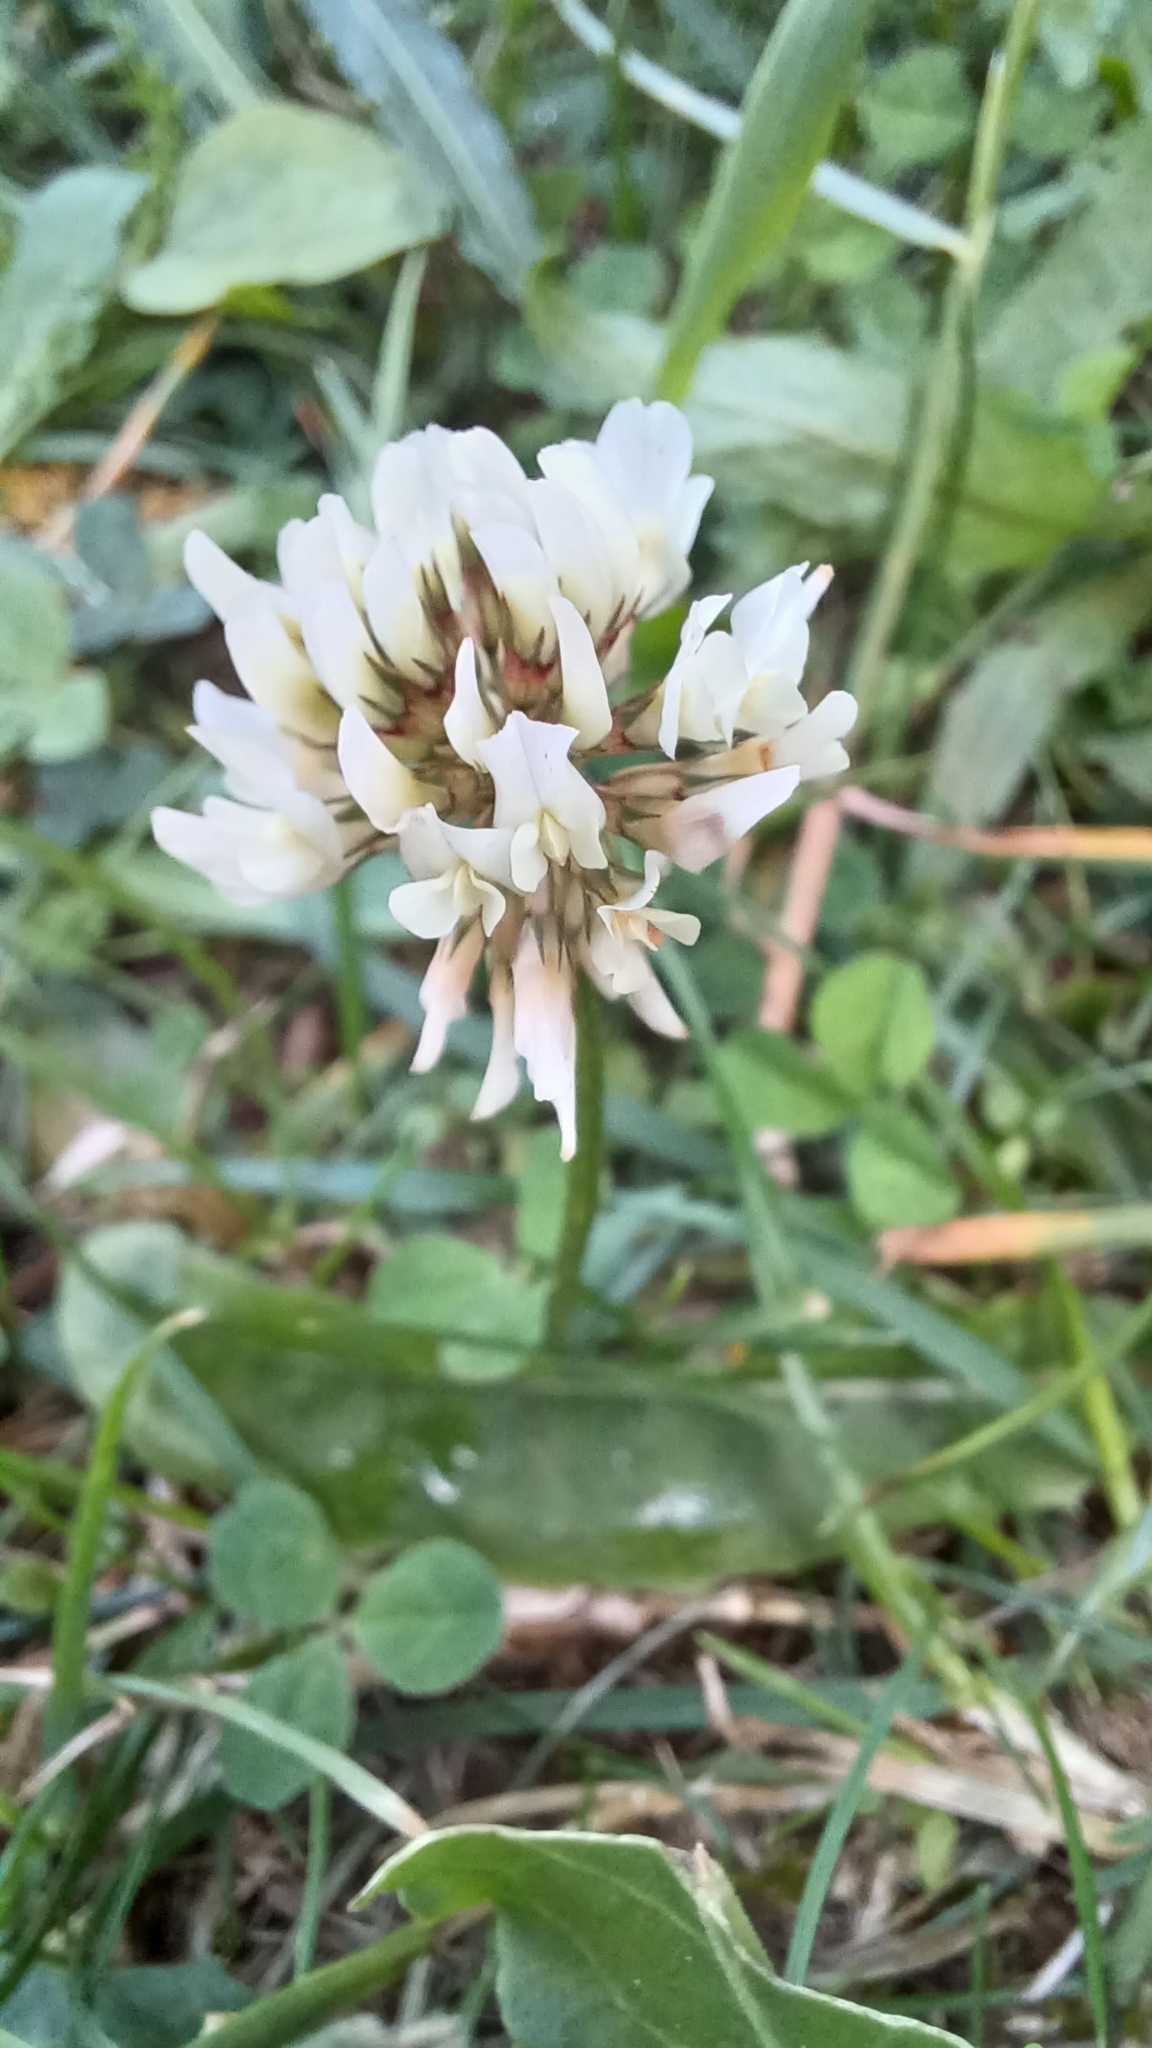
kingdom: Plantae
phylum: Tracheophyta
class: Magnoliopsida
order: Fabales
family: Fabaceae
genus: Trifolium
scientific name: Trifolium repens
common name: White clover
